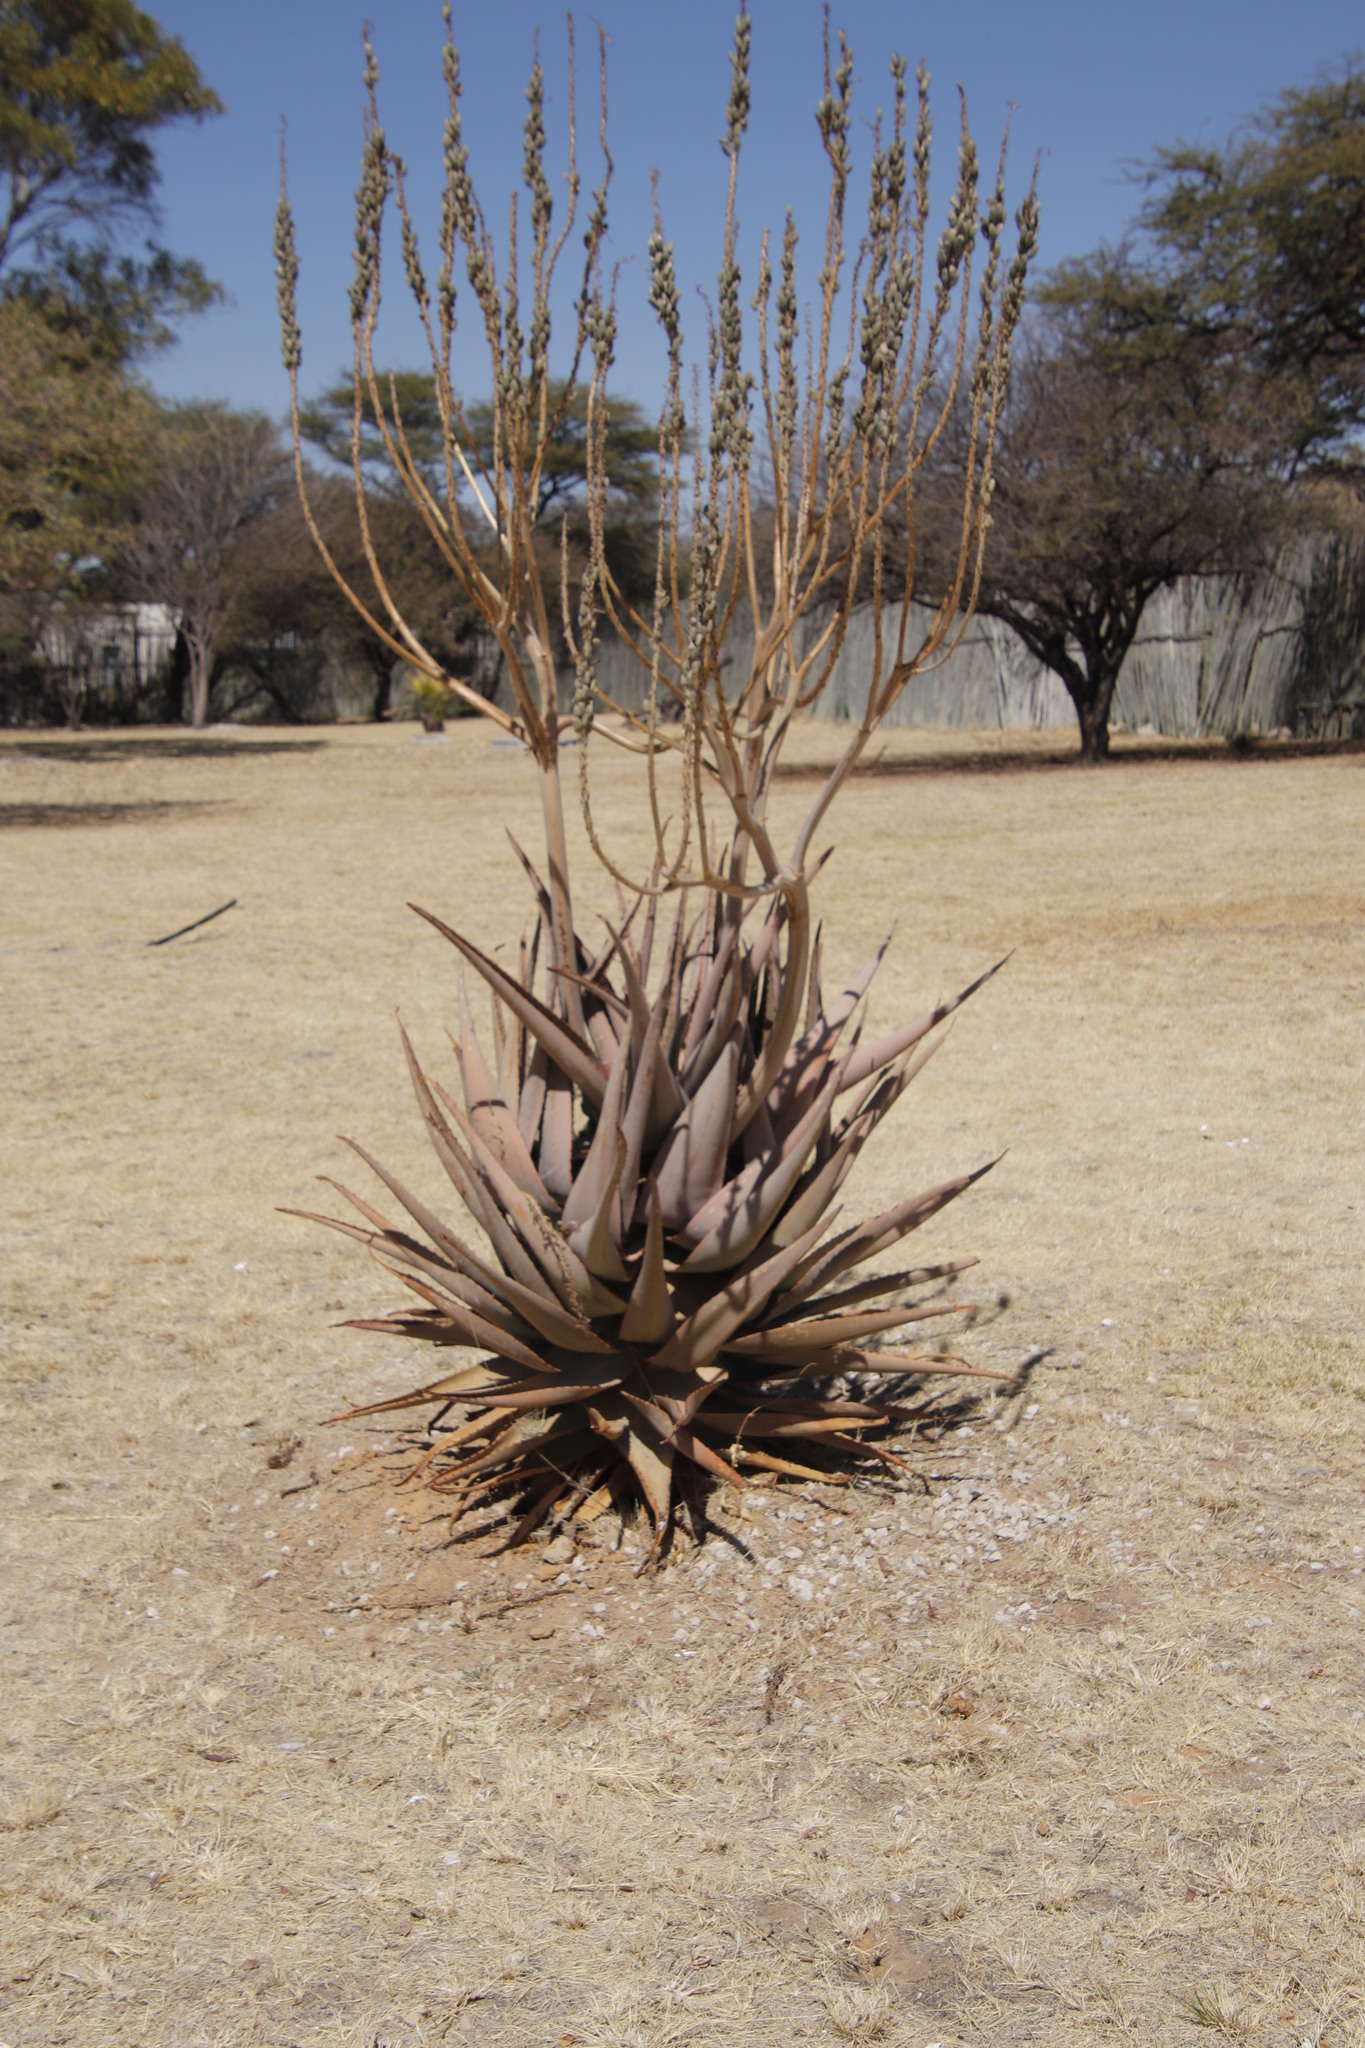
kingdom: Plantae
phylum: Tracheophyta
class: Liliopsida
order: Asparagales
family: Asphodelaceae
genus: Aloe
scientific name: Aloe littoralis
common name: Luanda tree aloe
